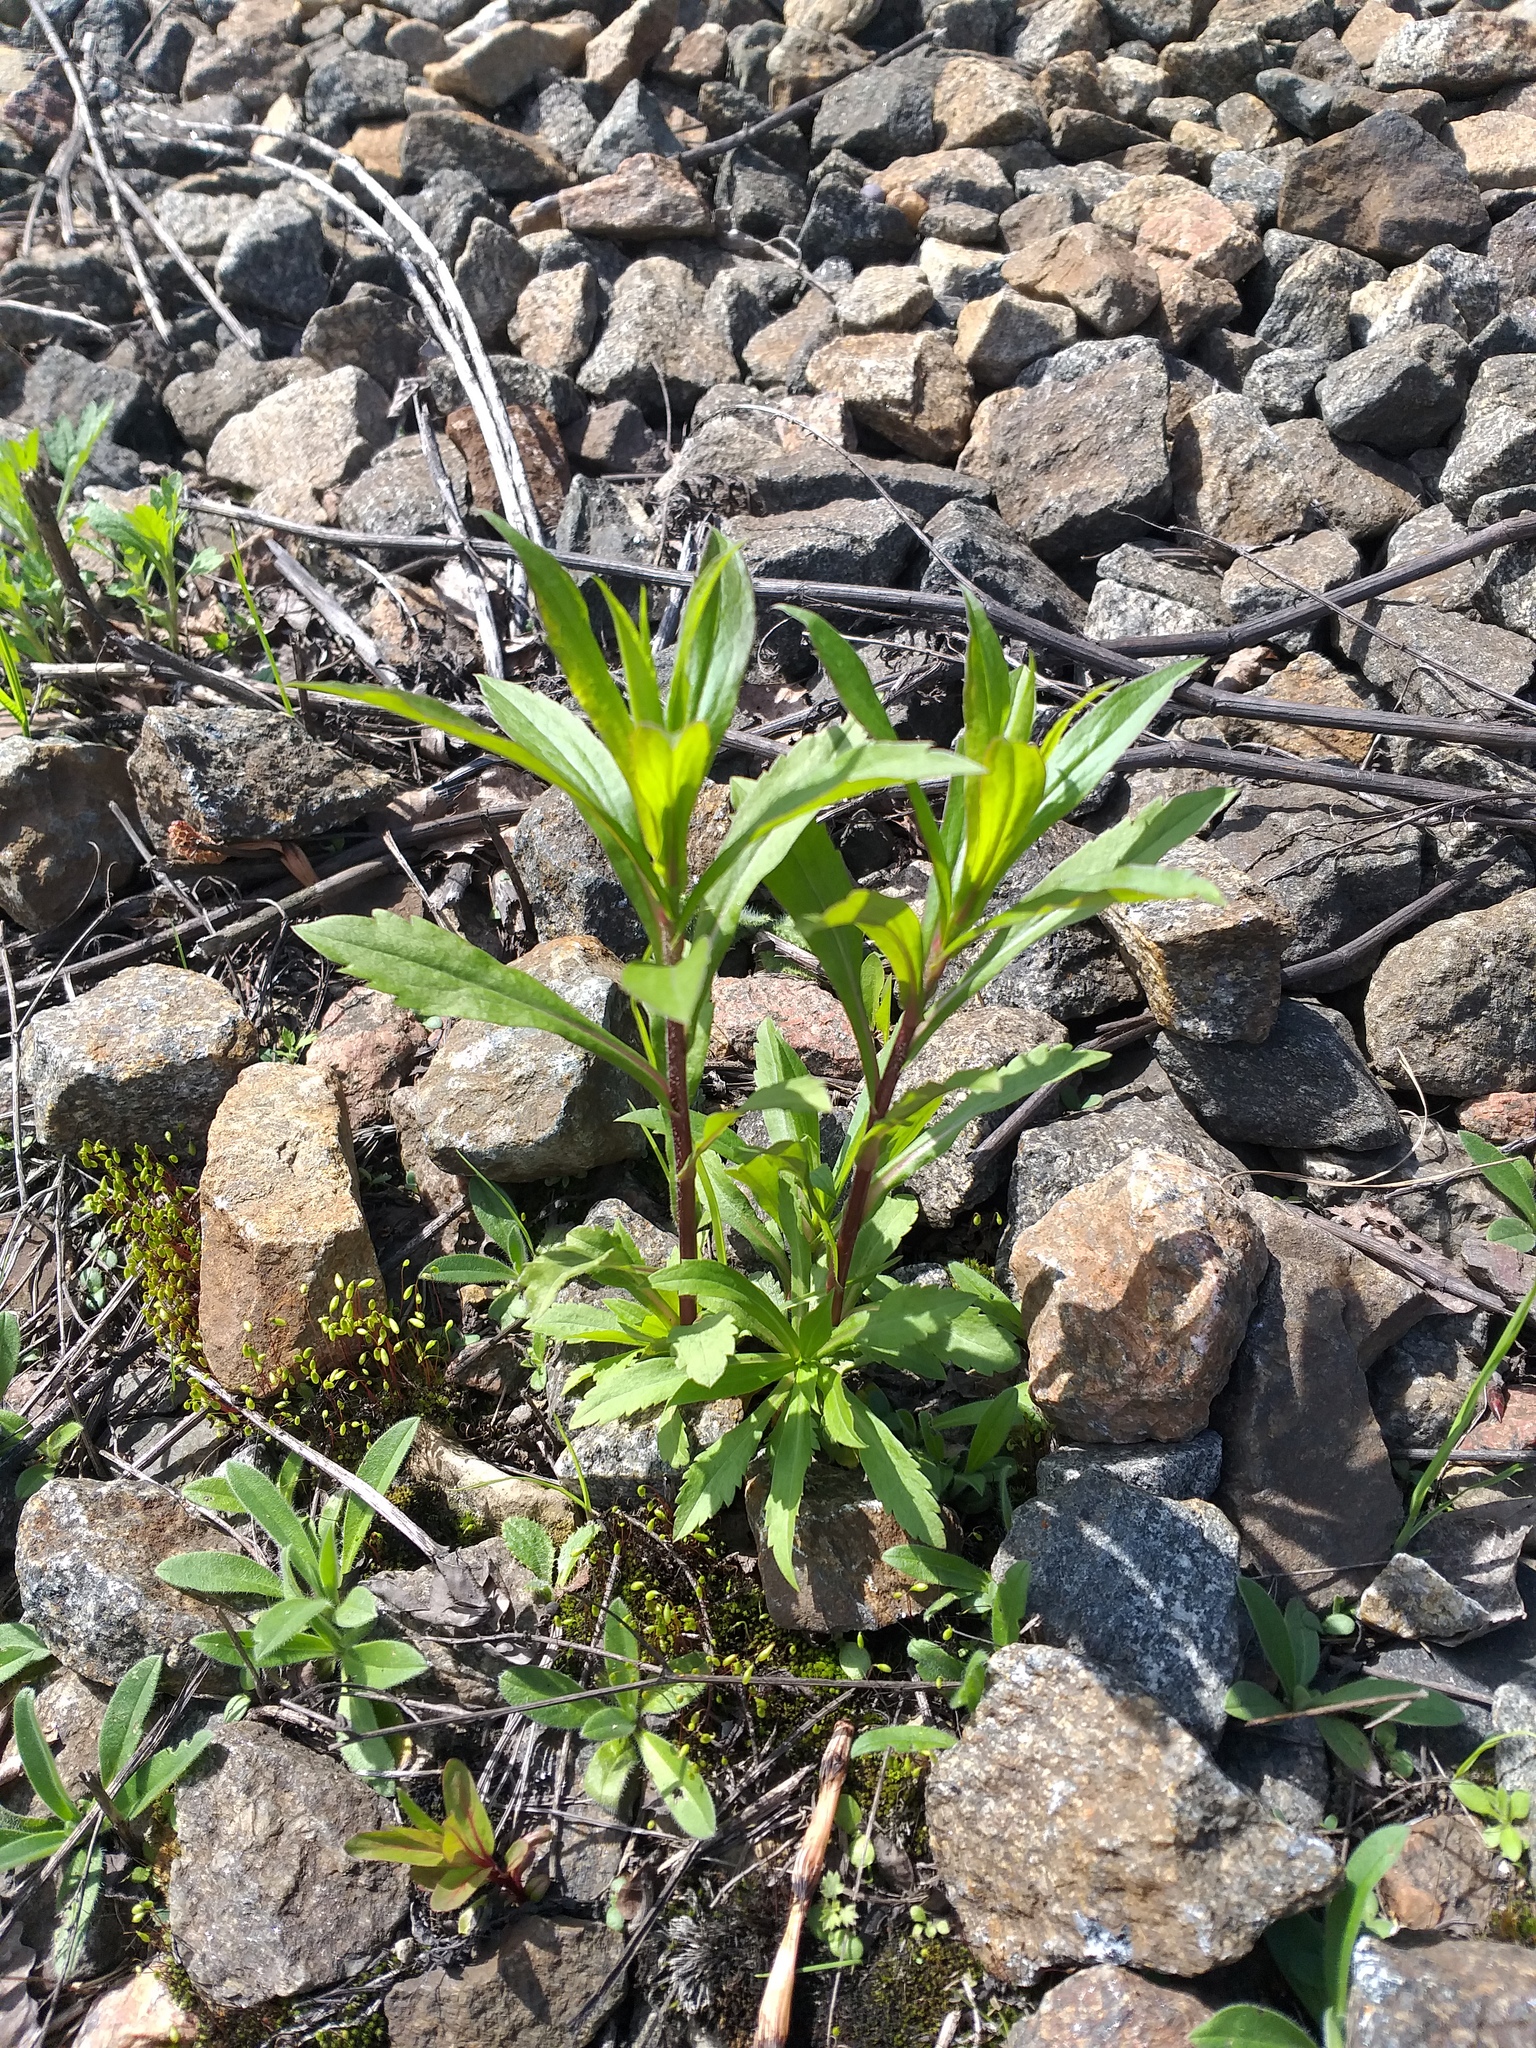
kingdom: Plantae
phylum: Tracheophyta
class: Magnoliopsida
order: Asterales
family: Asteraceae
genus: Solidago
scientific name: Solidago canadensis
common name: Canada goldenrod
